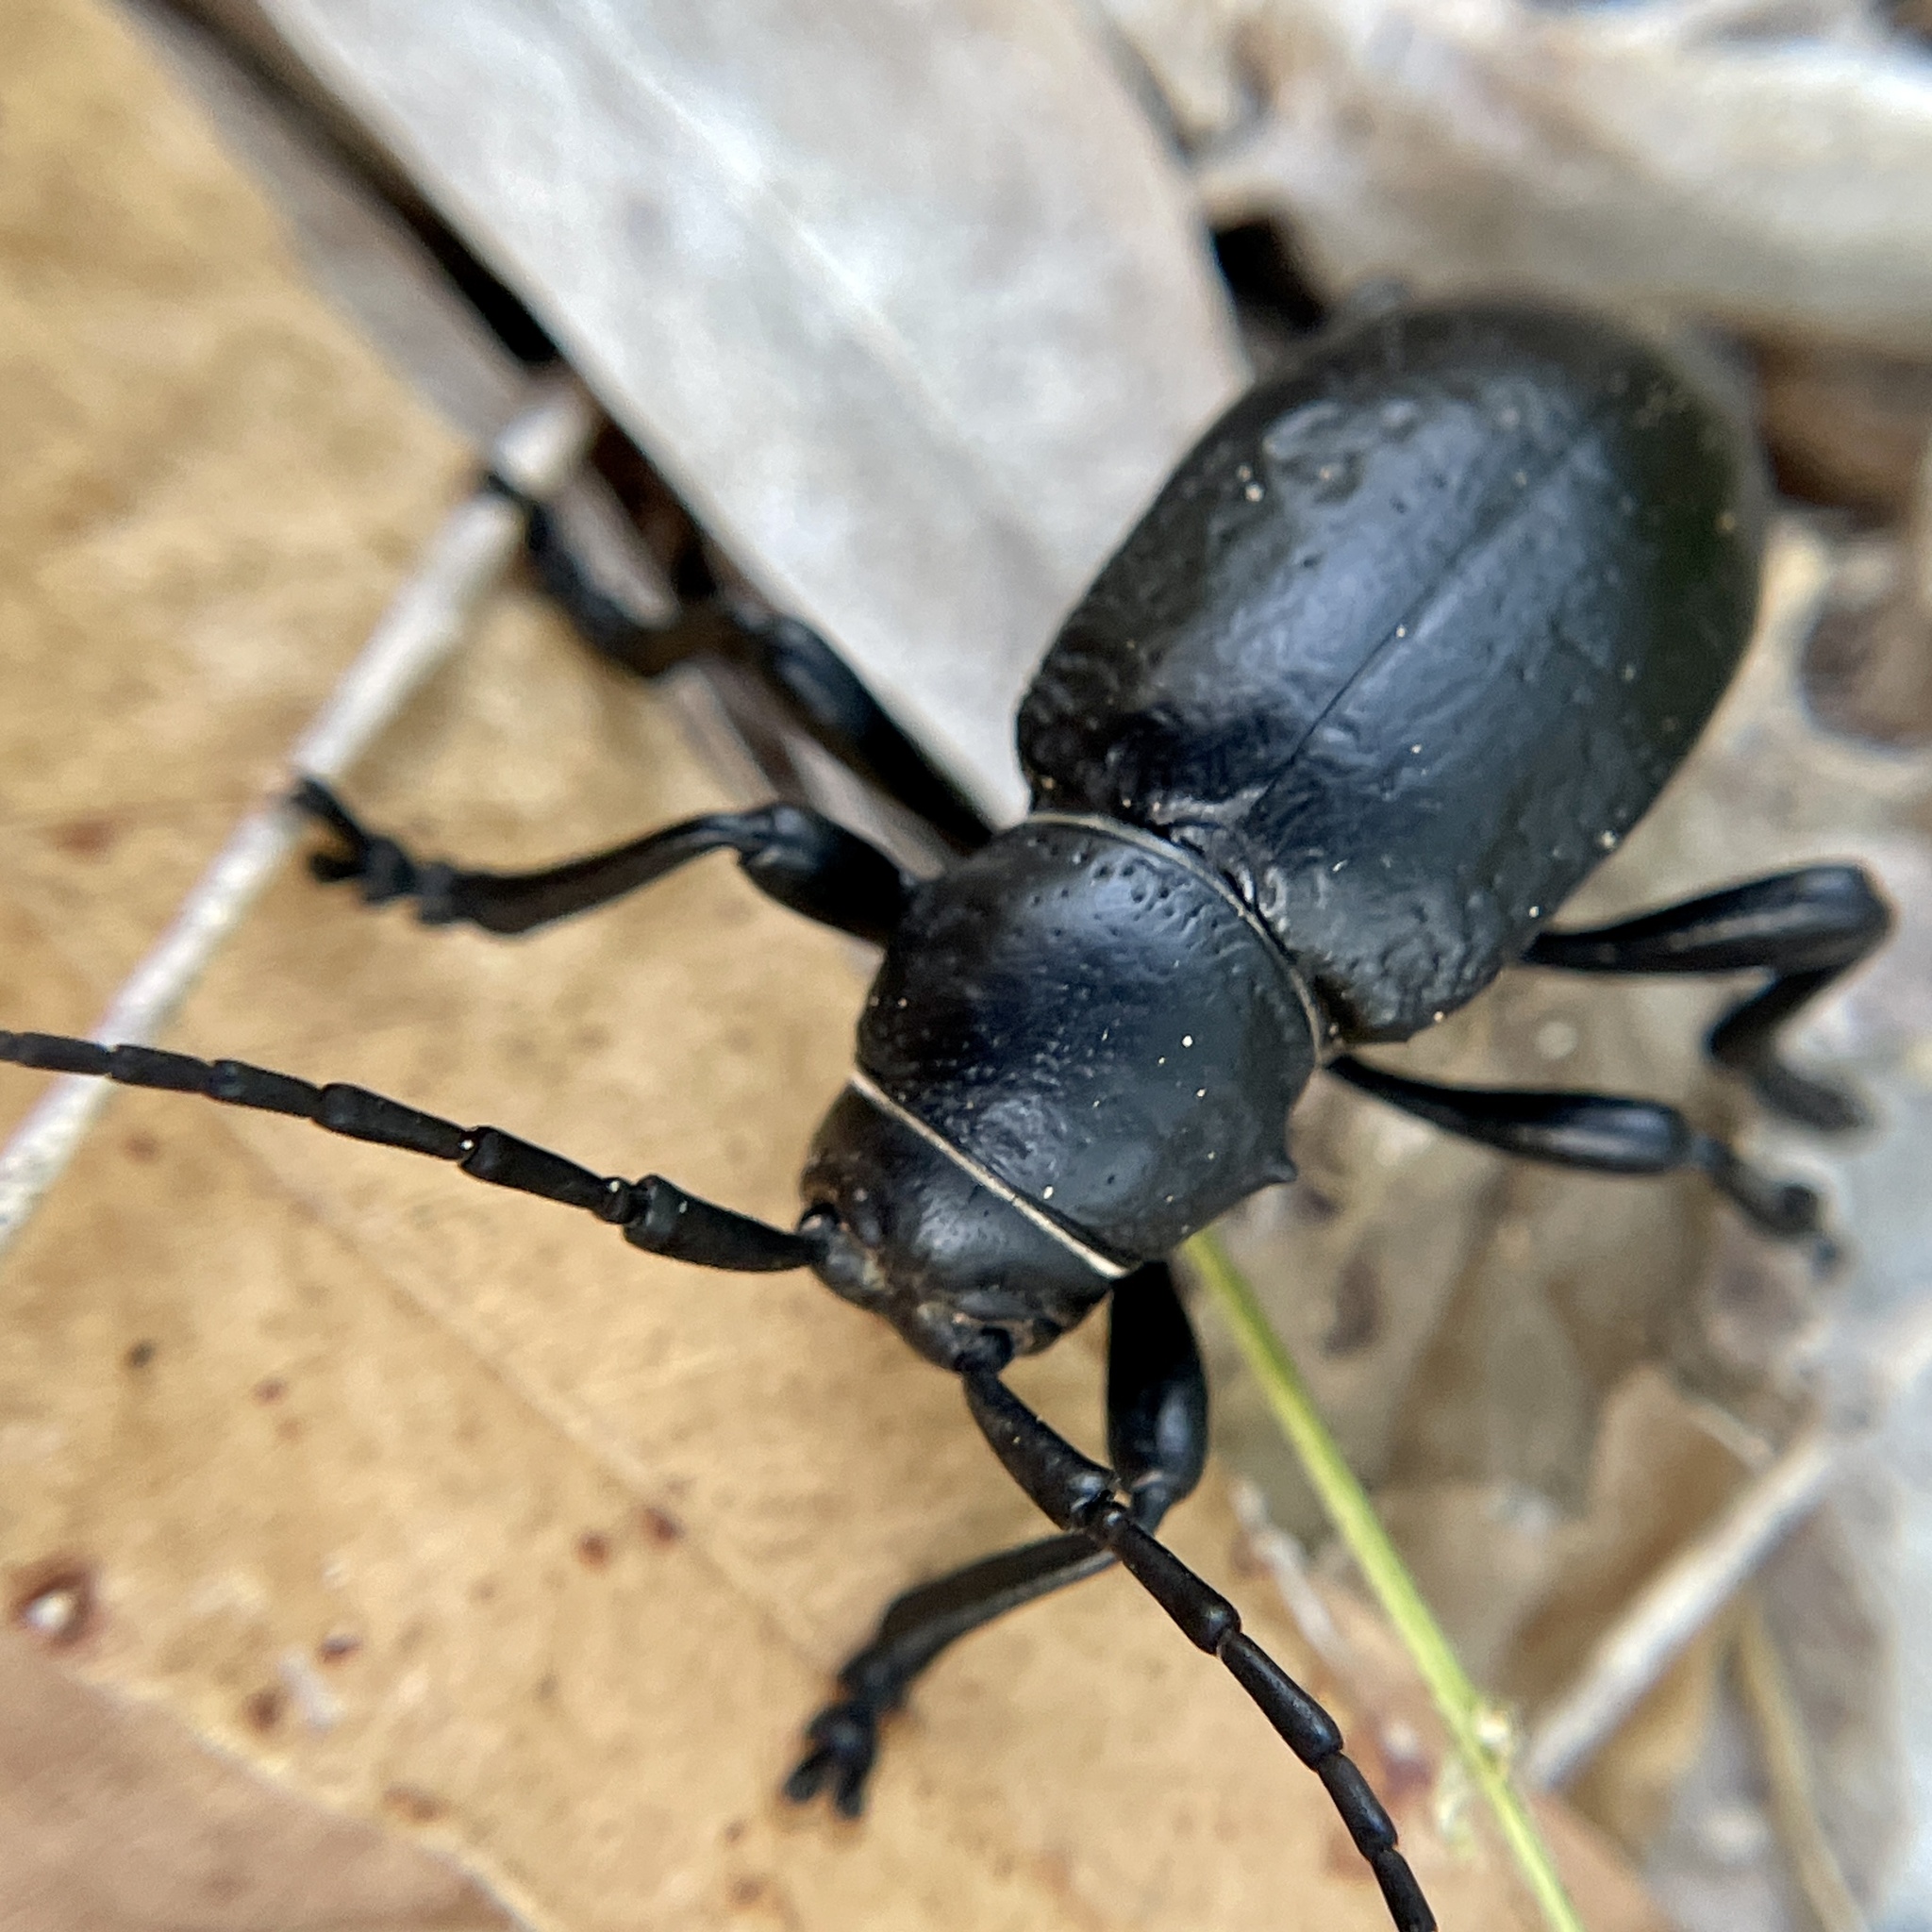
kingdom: Animalia
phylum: Arthropoda
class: Insecta
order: Coleoptera
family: Cerambycidae
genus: Moneilema
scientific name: Moneilema armatum
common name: Long-horned beetle
